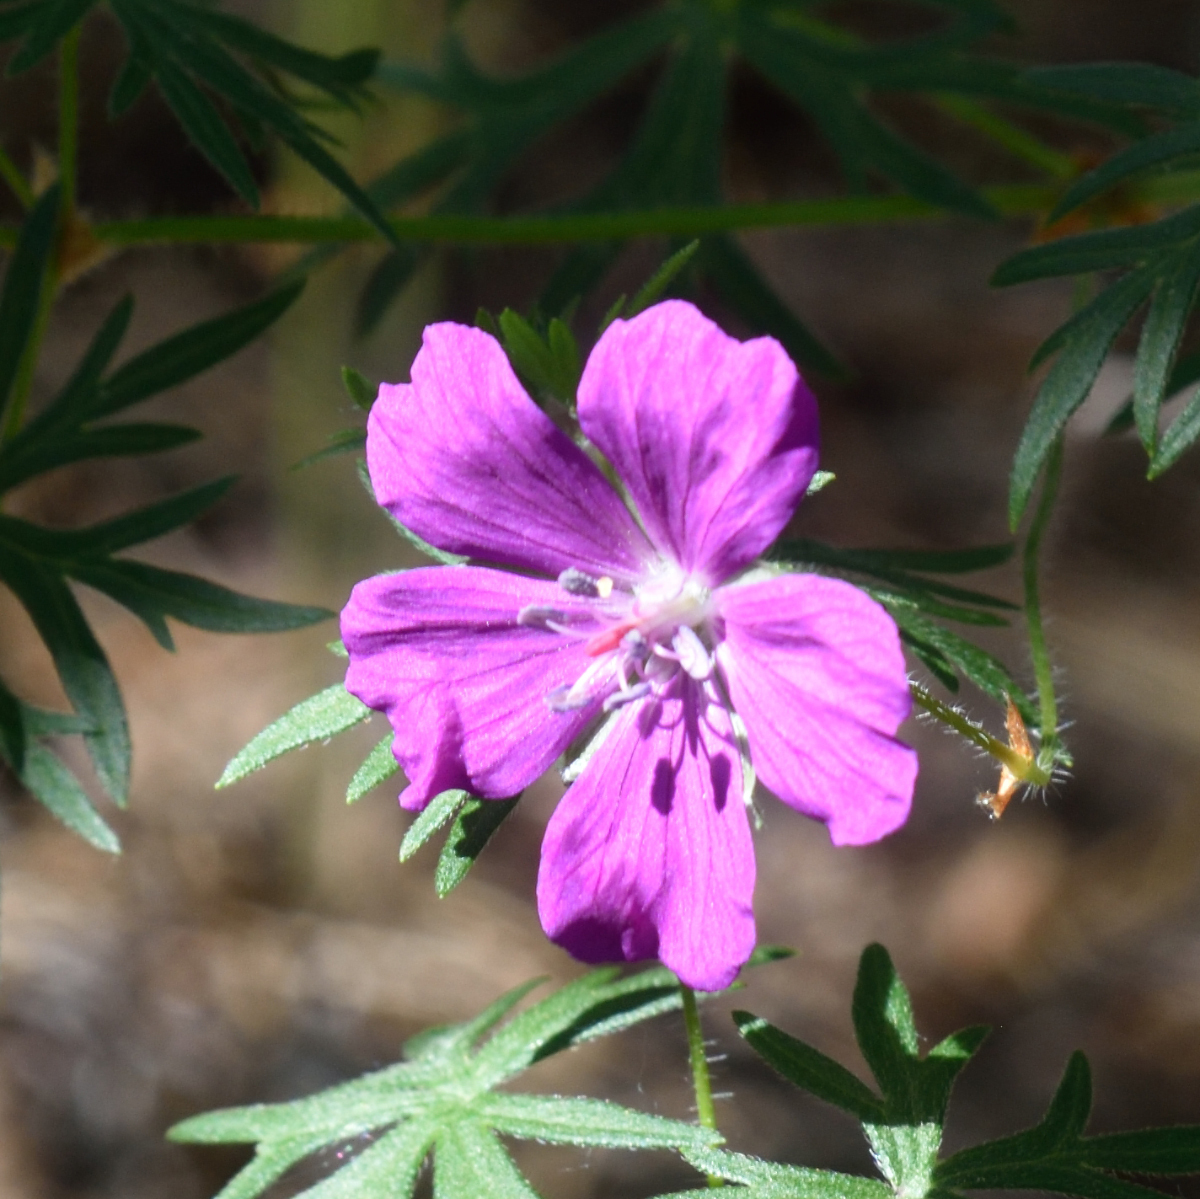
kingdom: Plantae
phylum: Tracheophyta
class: Magnoliopsida
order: Geraniales
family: Geraniaceae
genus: Geranium
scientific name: Geranium sanguineum
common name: Bloody crane's-bill
